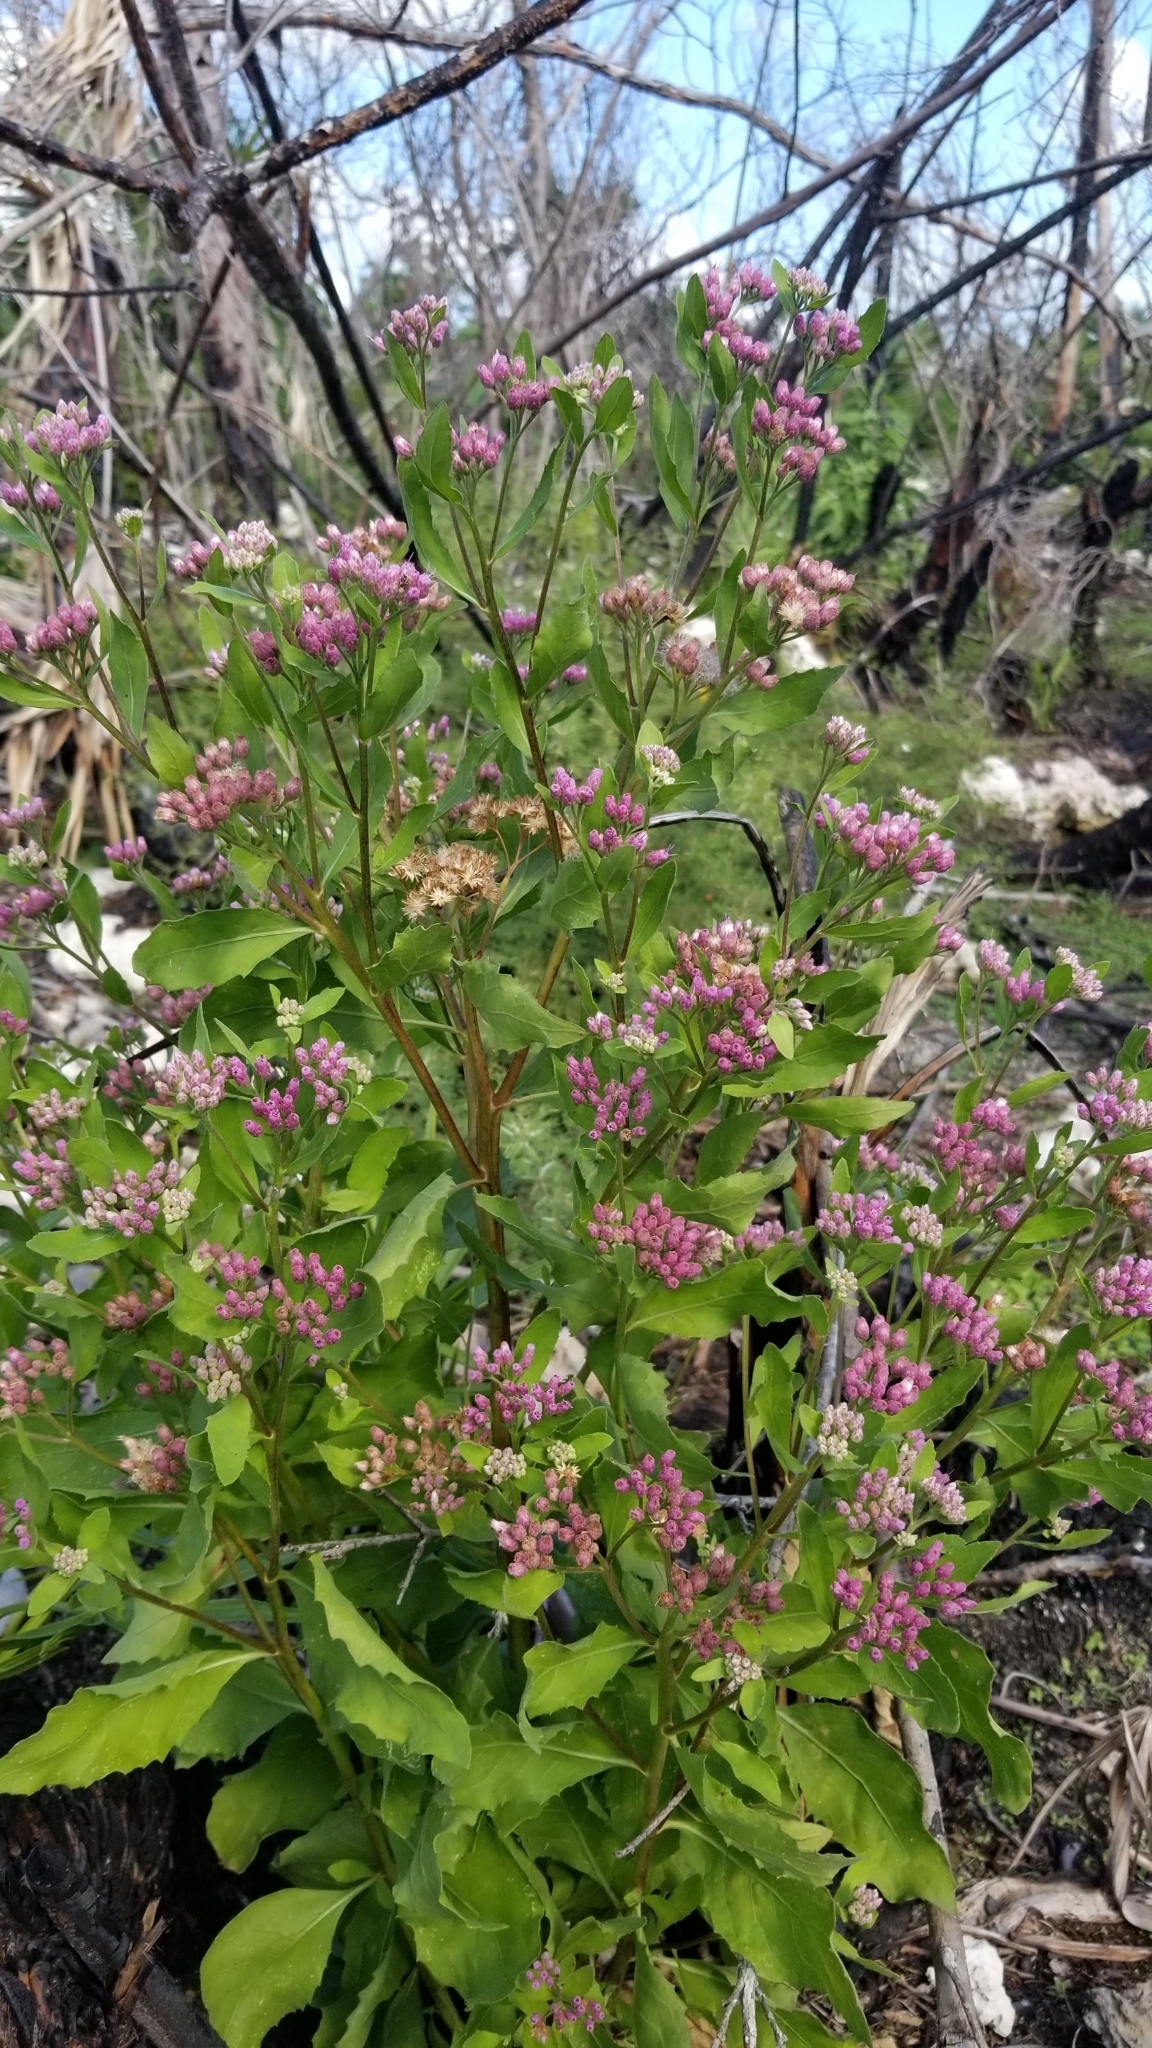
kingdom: Plantae
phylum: Tracheophyta
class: Magnoliopsida
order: Asterales
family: Asteraceae
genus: Pluchea
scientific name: Pluchea odorata
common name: Saltmarsh fleabane
